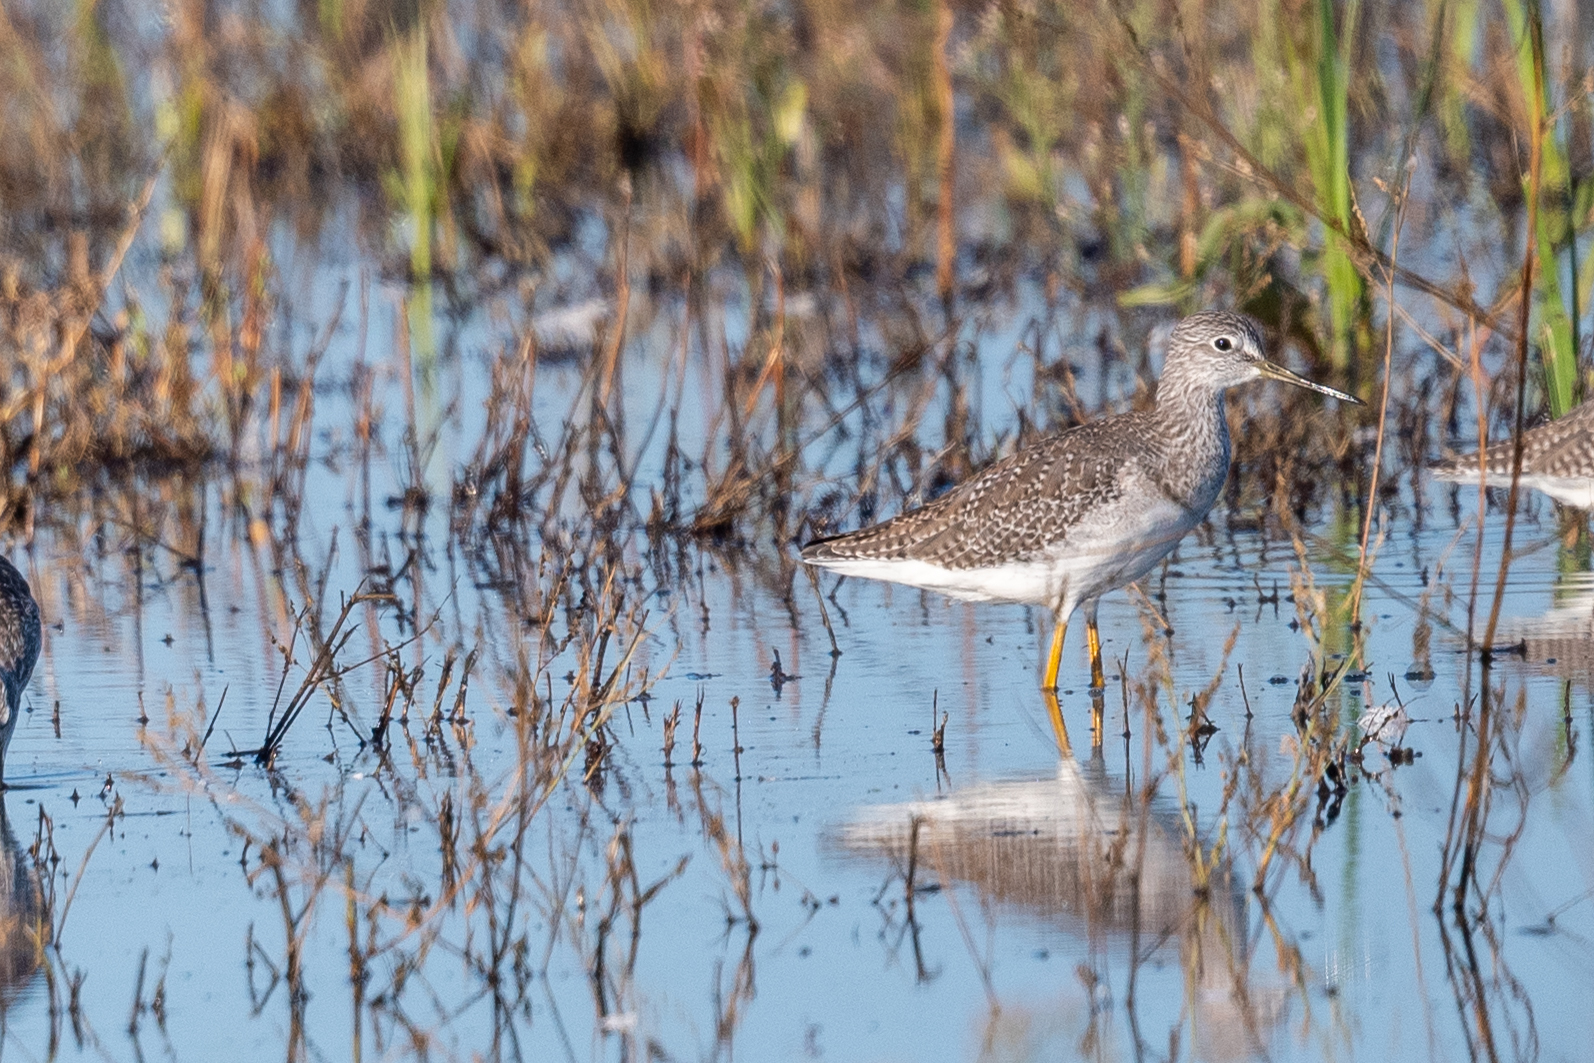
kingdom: Animalia
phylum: Chordata
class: Aves
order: Charadriiformes
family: Scolopacidae
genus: Tringa
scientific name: Tringa melanoleuca
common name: Greater yellowlegs
